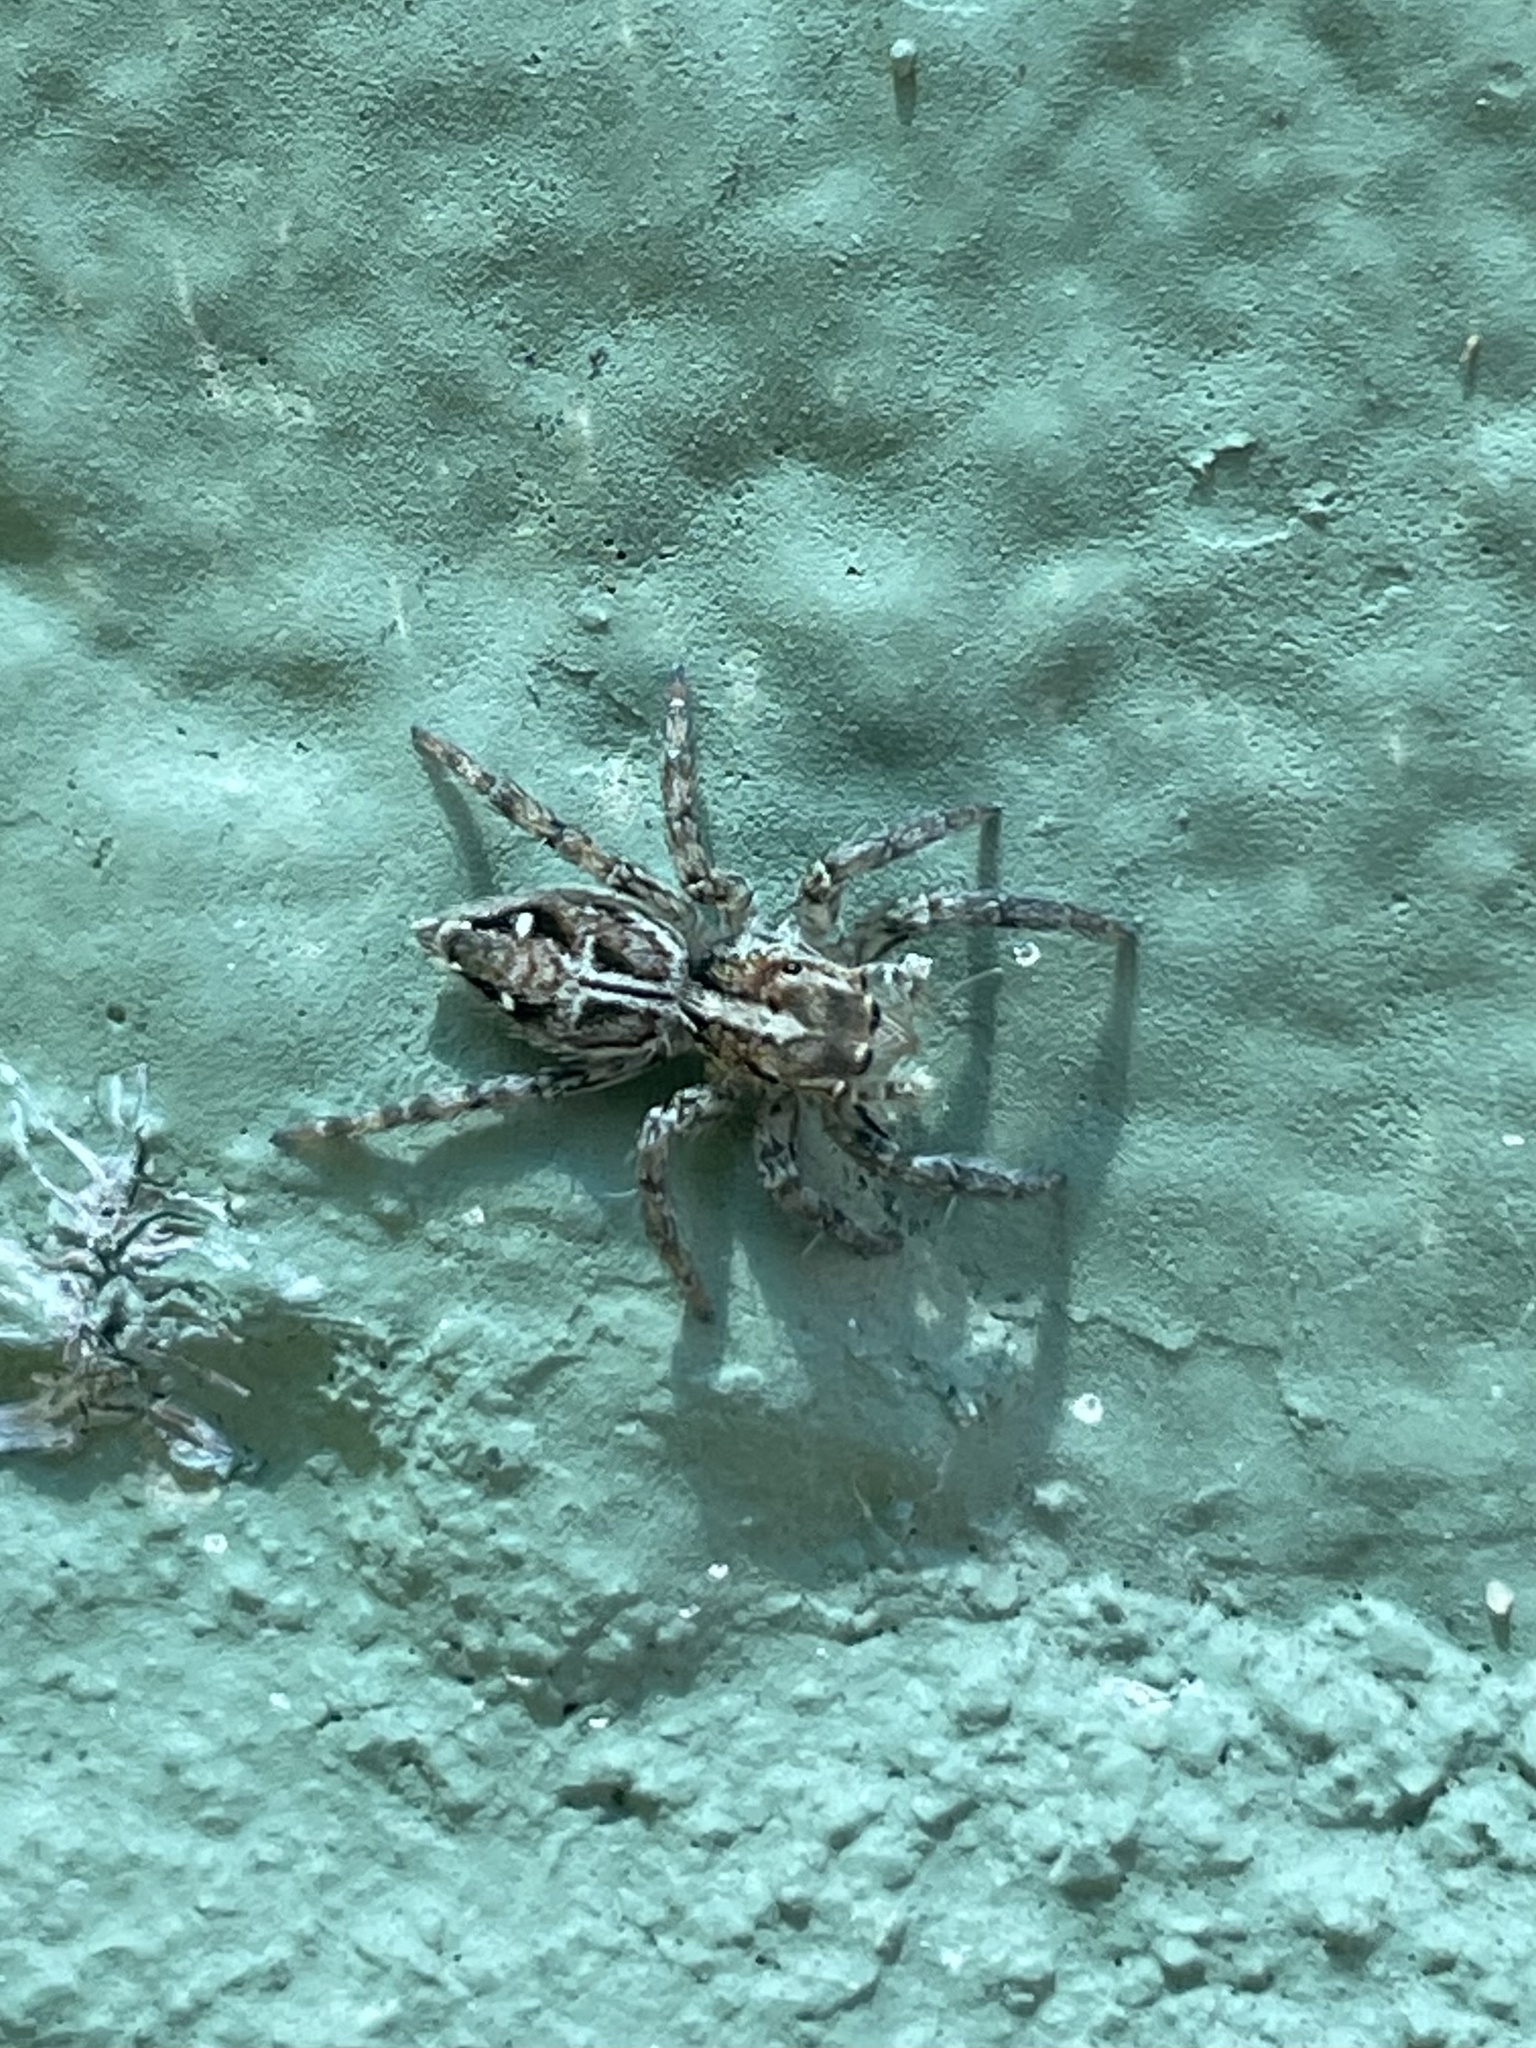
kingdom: Animalia
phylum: Arthropoda
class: Arachnida
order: Araneae
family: Salticidae
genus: Plexippus
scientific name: Plexippus paykulli
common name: Pantropical jumper
